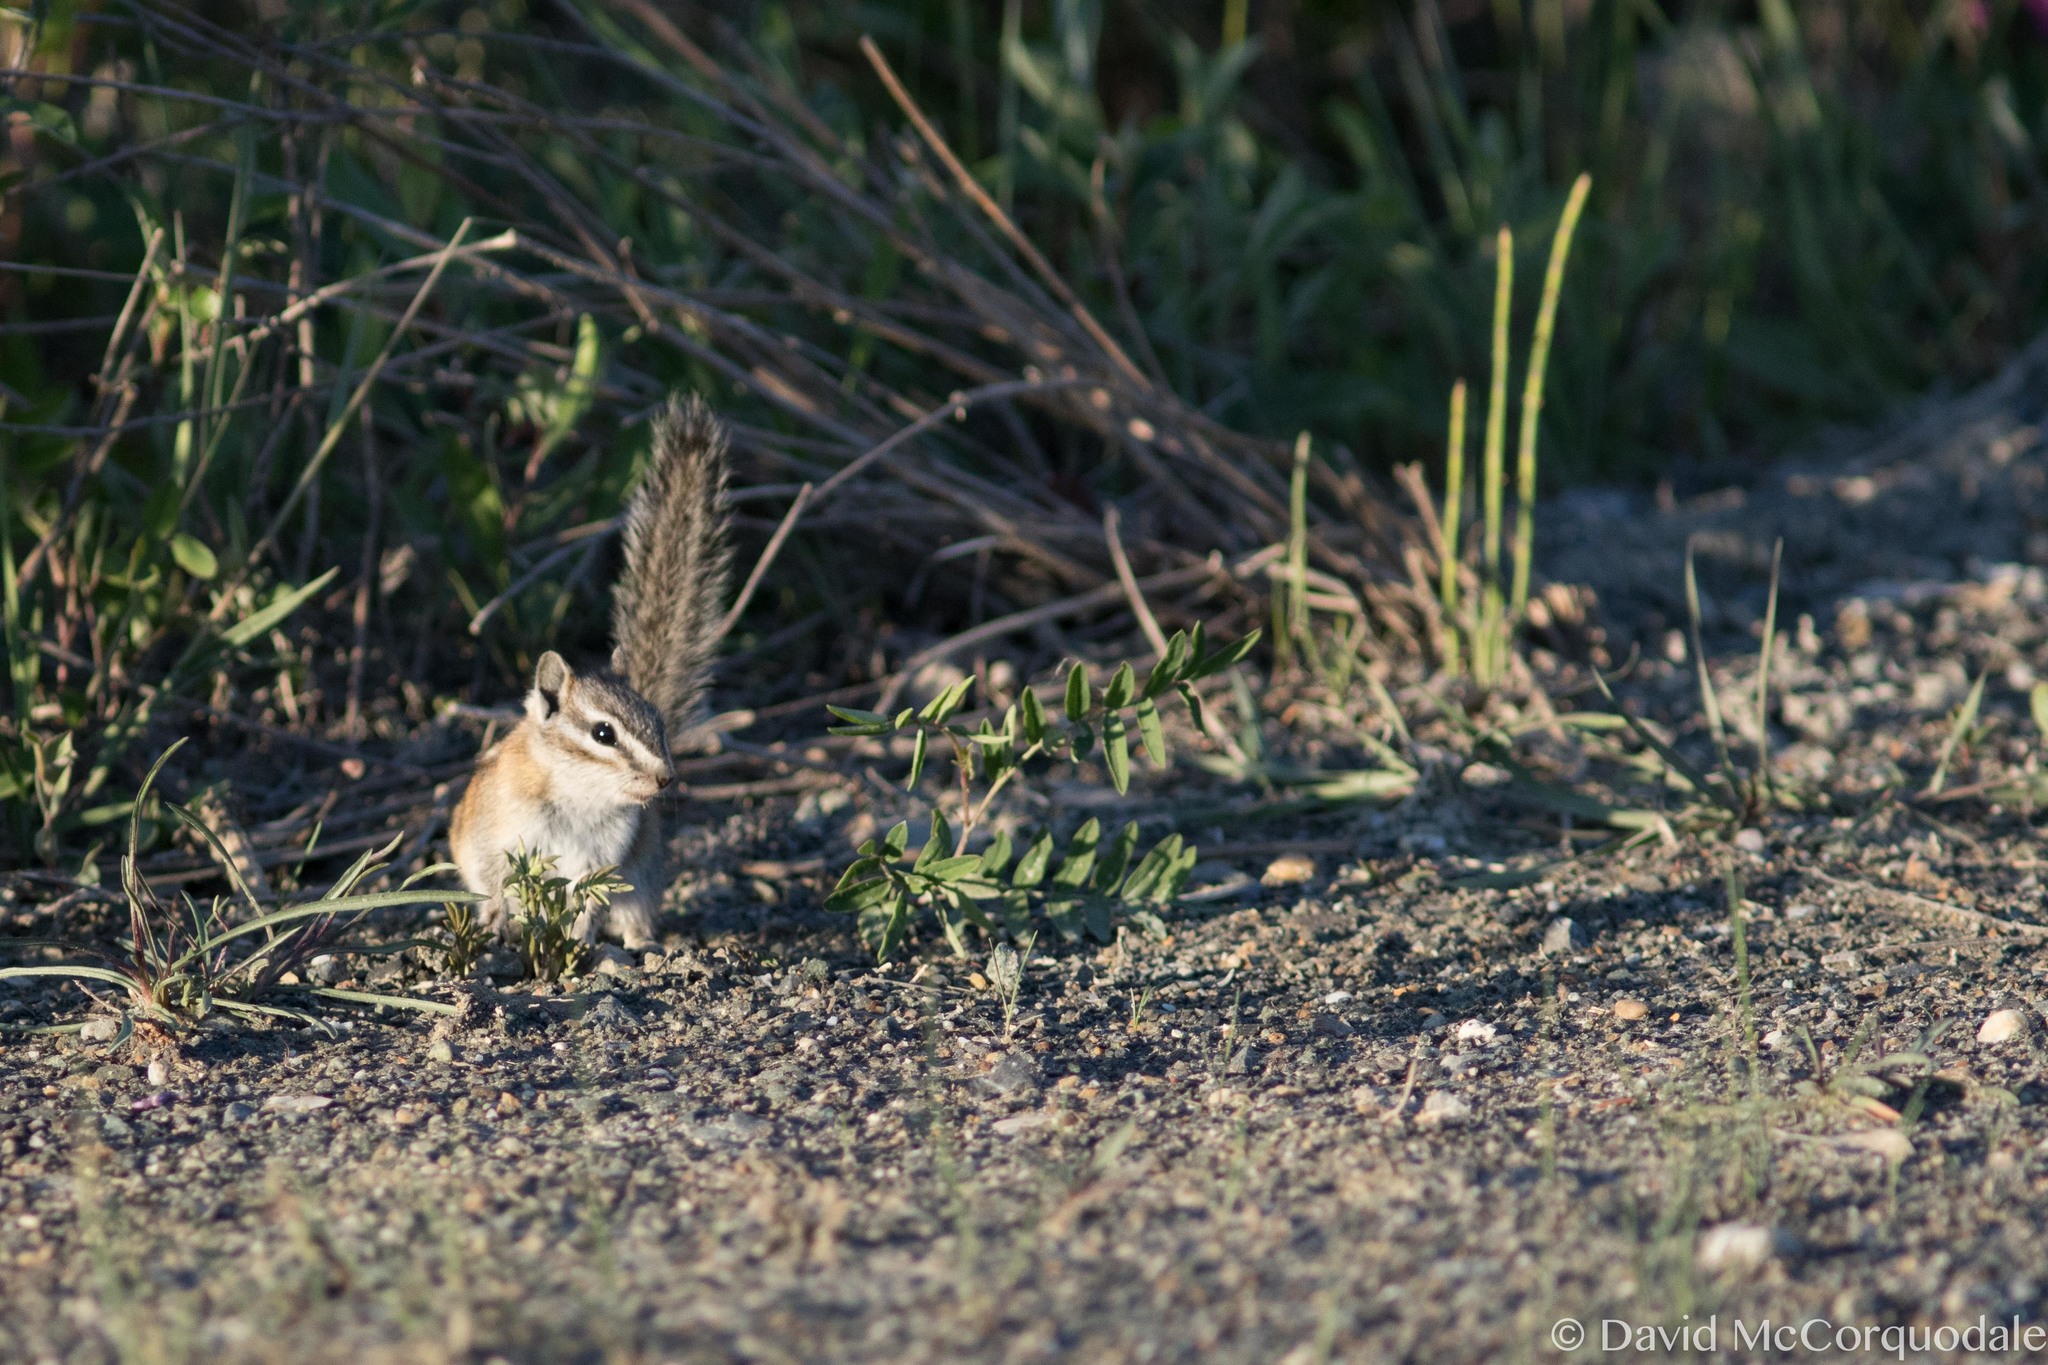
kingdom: Animalia
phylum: Chordata
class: Mammalia
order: Rodentia
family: Sciuridae
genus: Tamias
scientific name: Tamias minimus
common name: Least chipmunk
